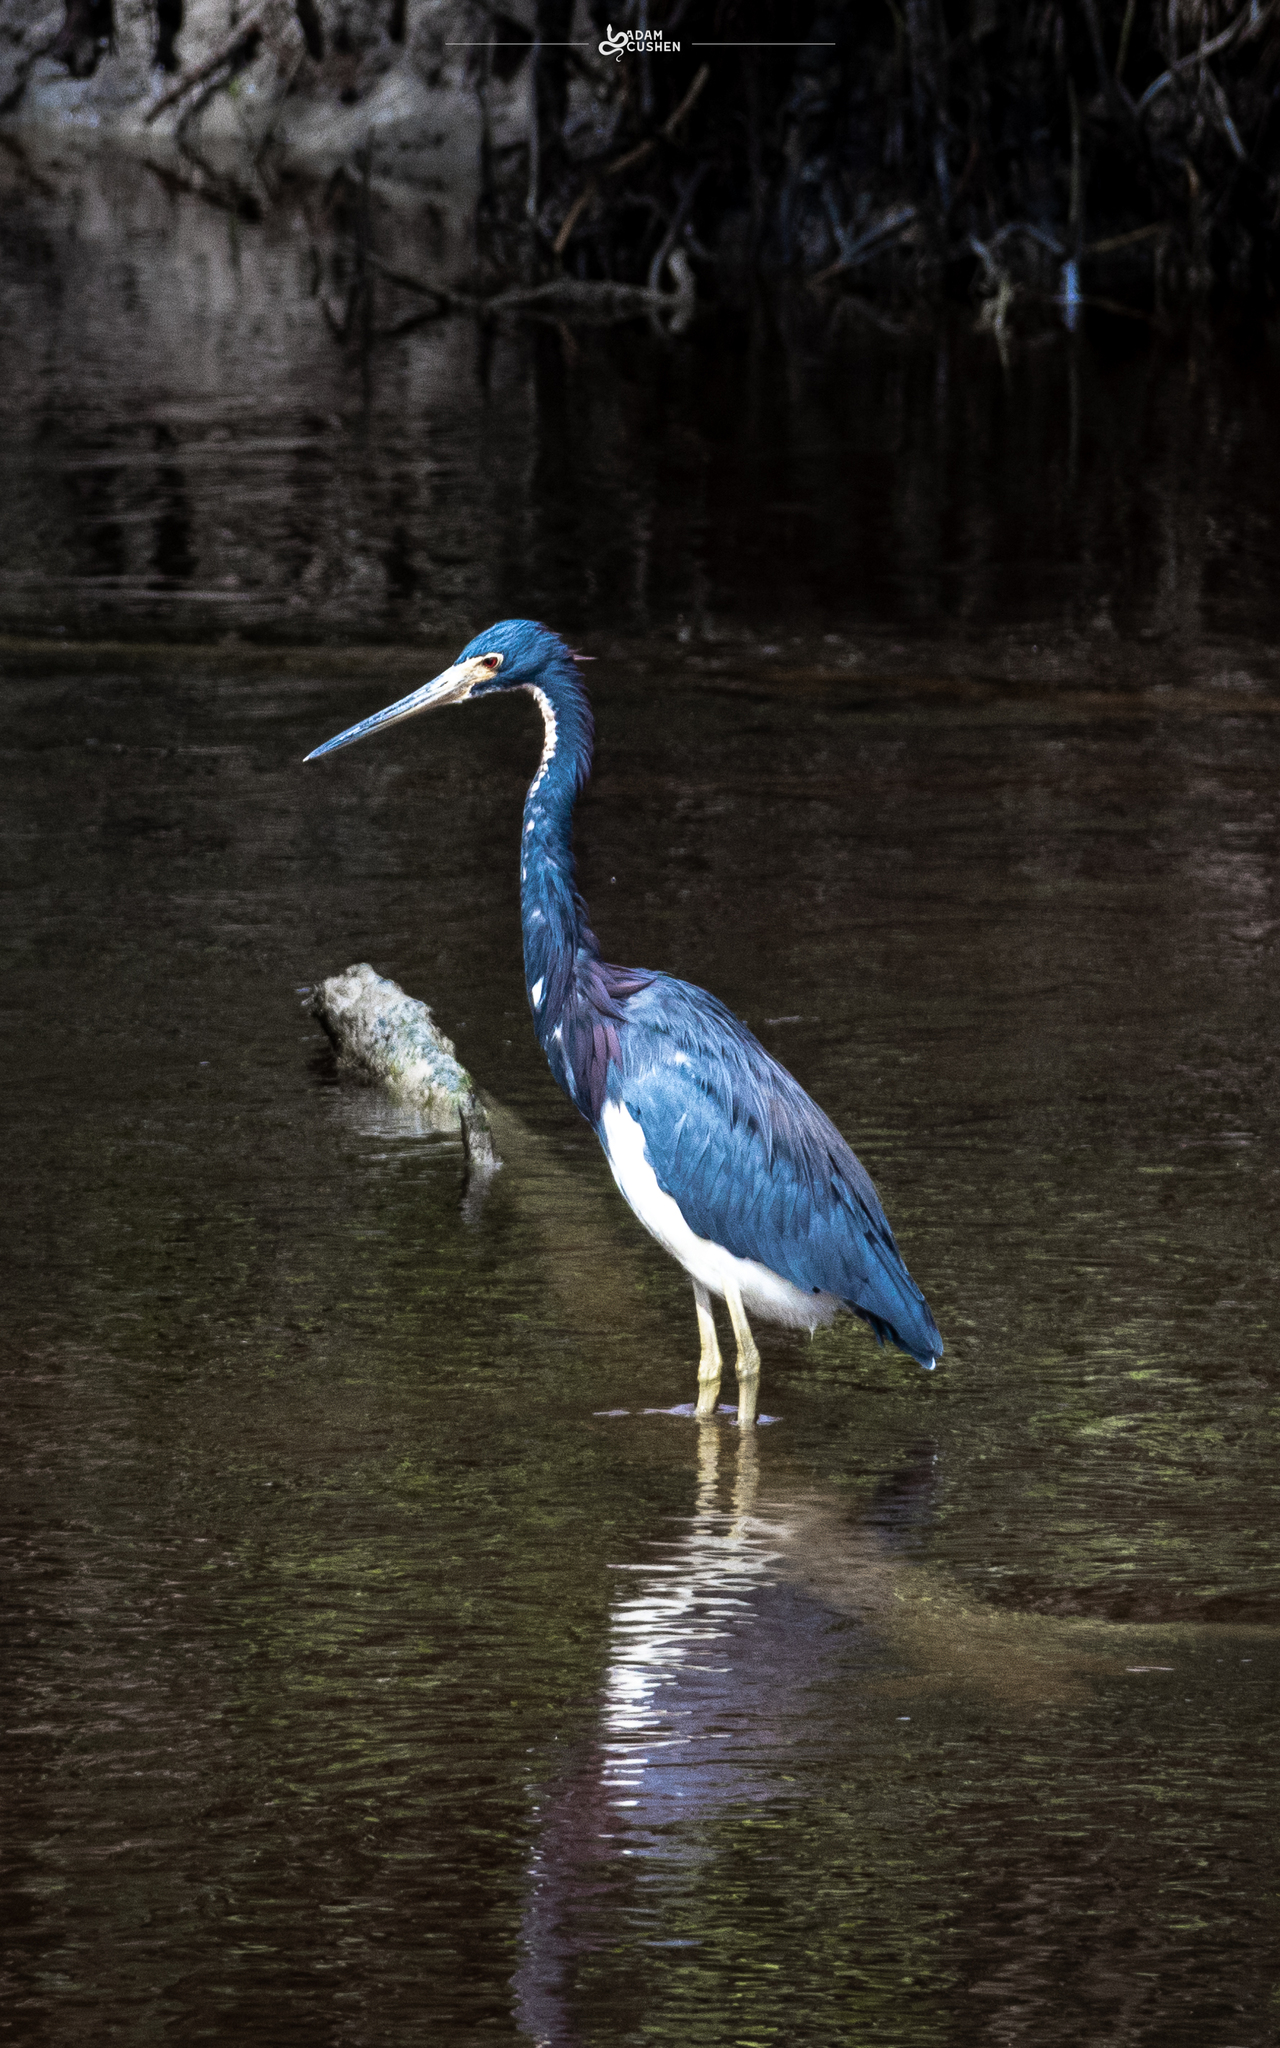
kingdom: Animalia
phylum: Chordata
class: Aves
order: Pelecaniformes
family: Ardeidae
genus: Egretta
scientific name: Egretta tricolor
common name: Tricolored heron
